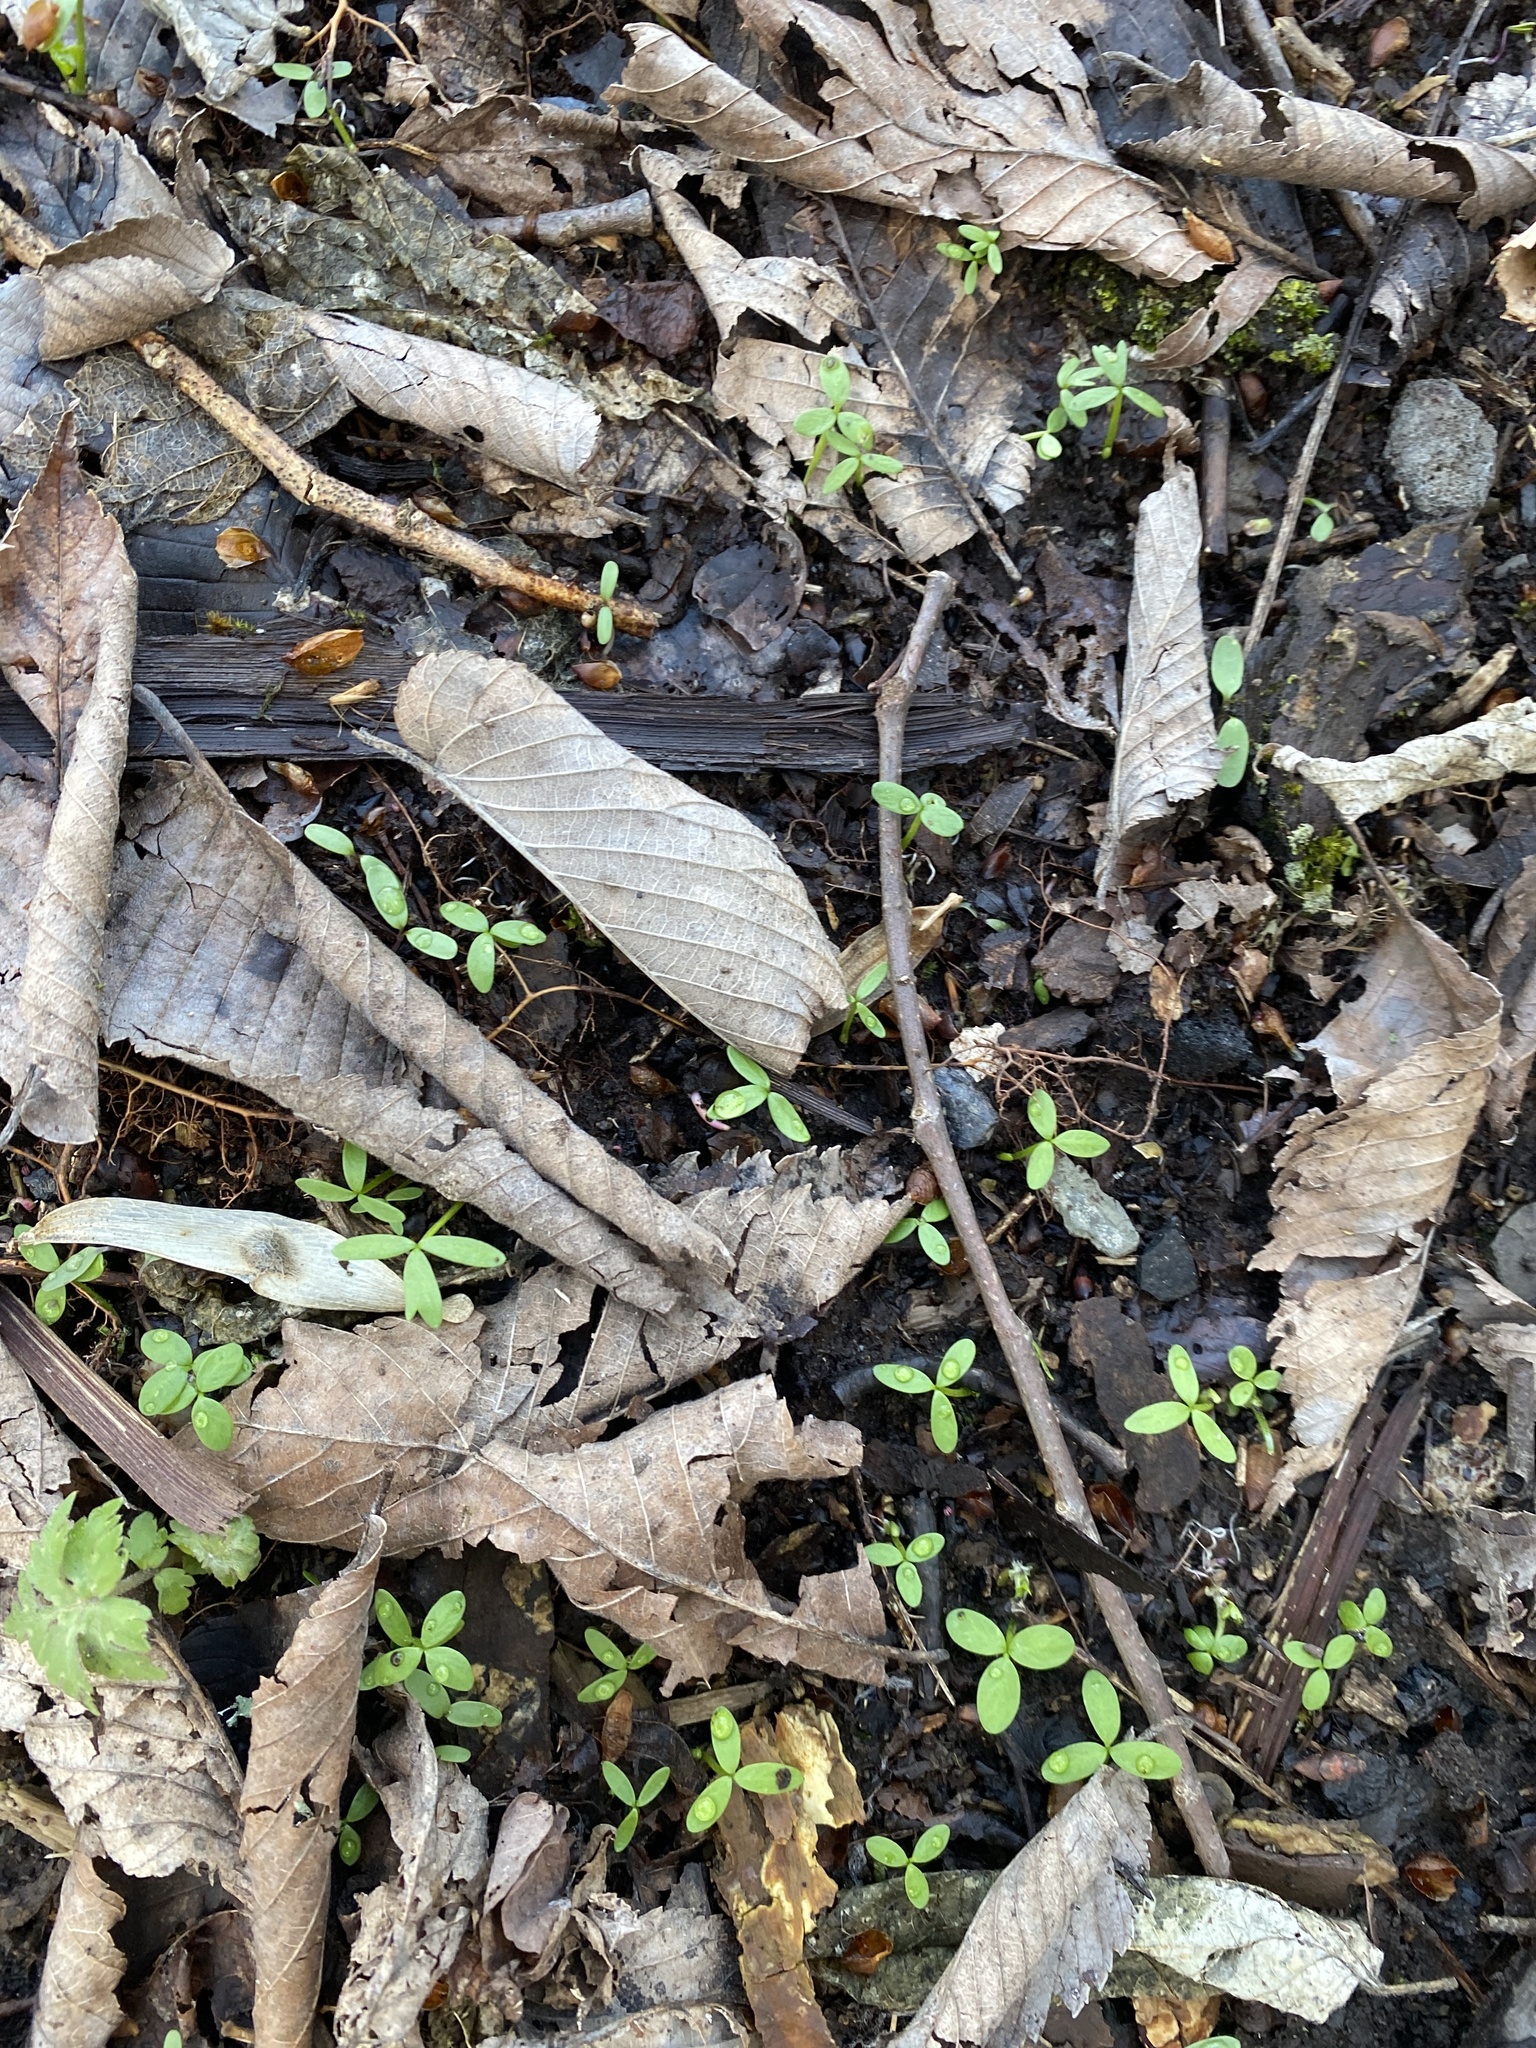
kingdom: Plantae
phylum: Tracheophyta
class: Magnoliopsida
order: Brassicales
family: Limnanthaceae
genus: Floerkea
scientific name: Floerkea proserpinacoides
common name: False mermaid
